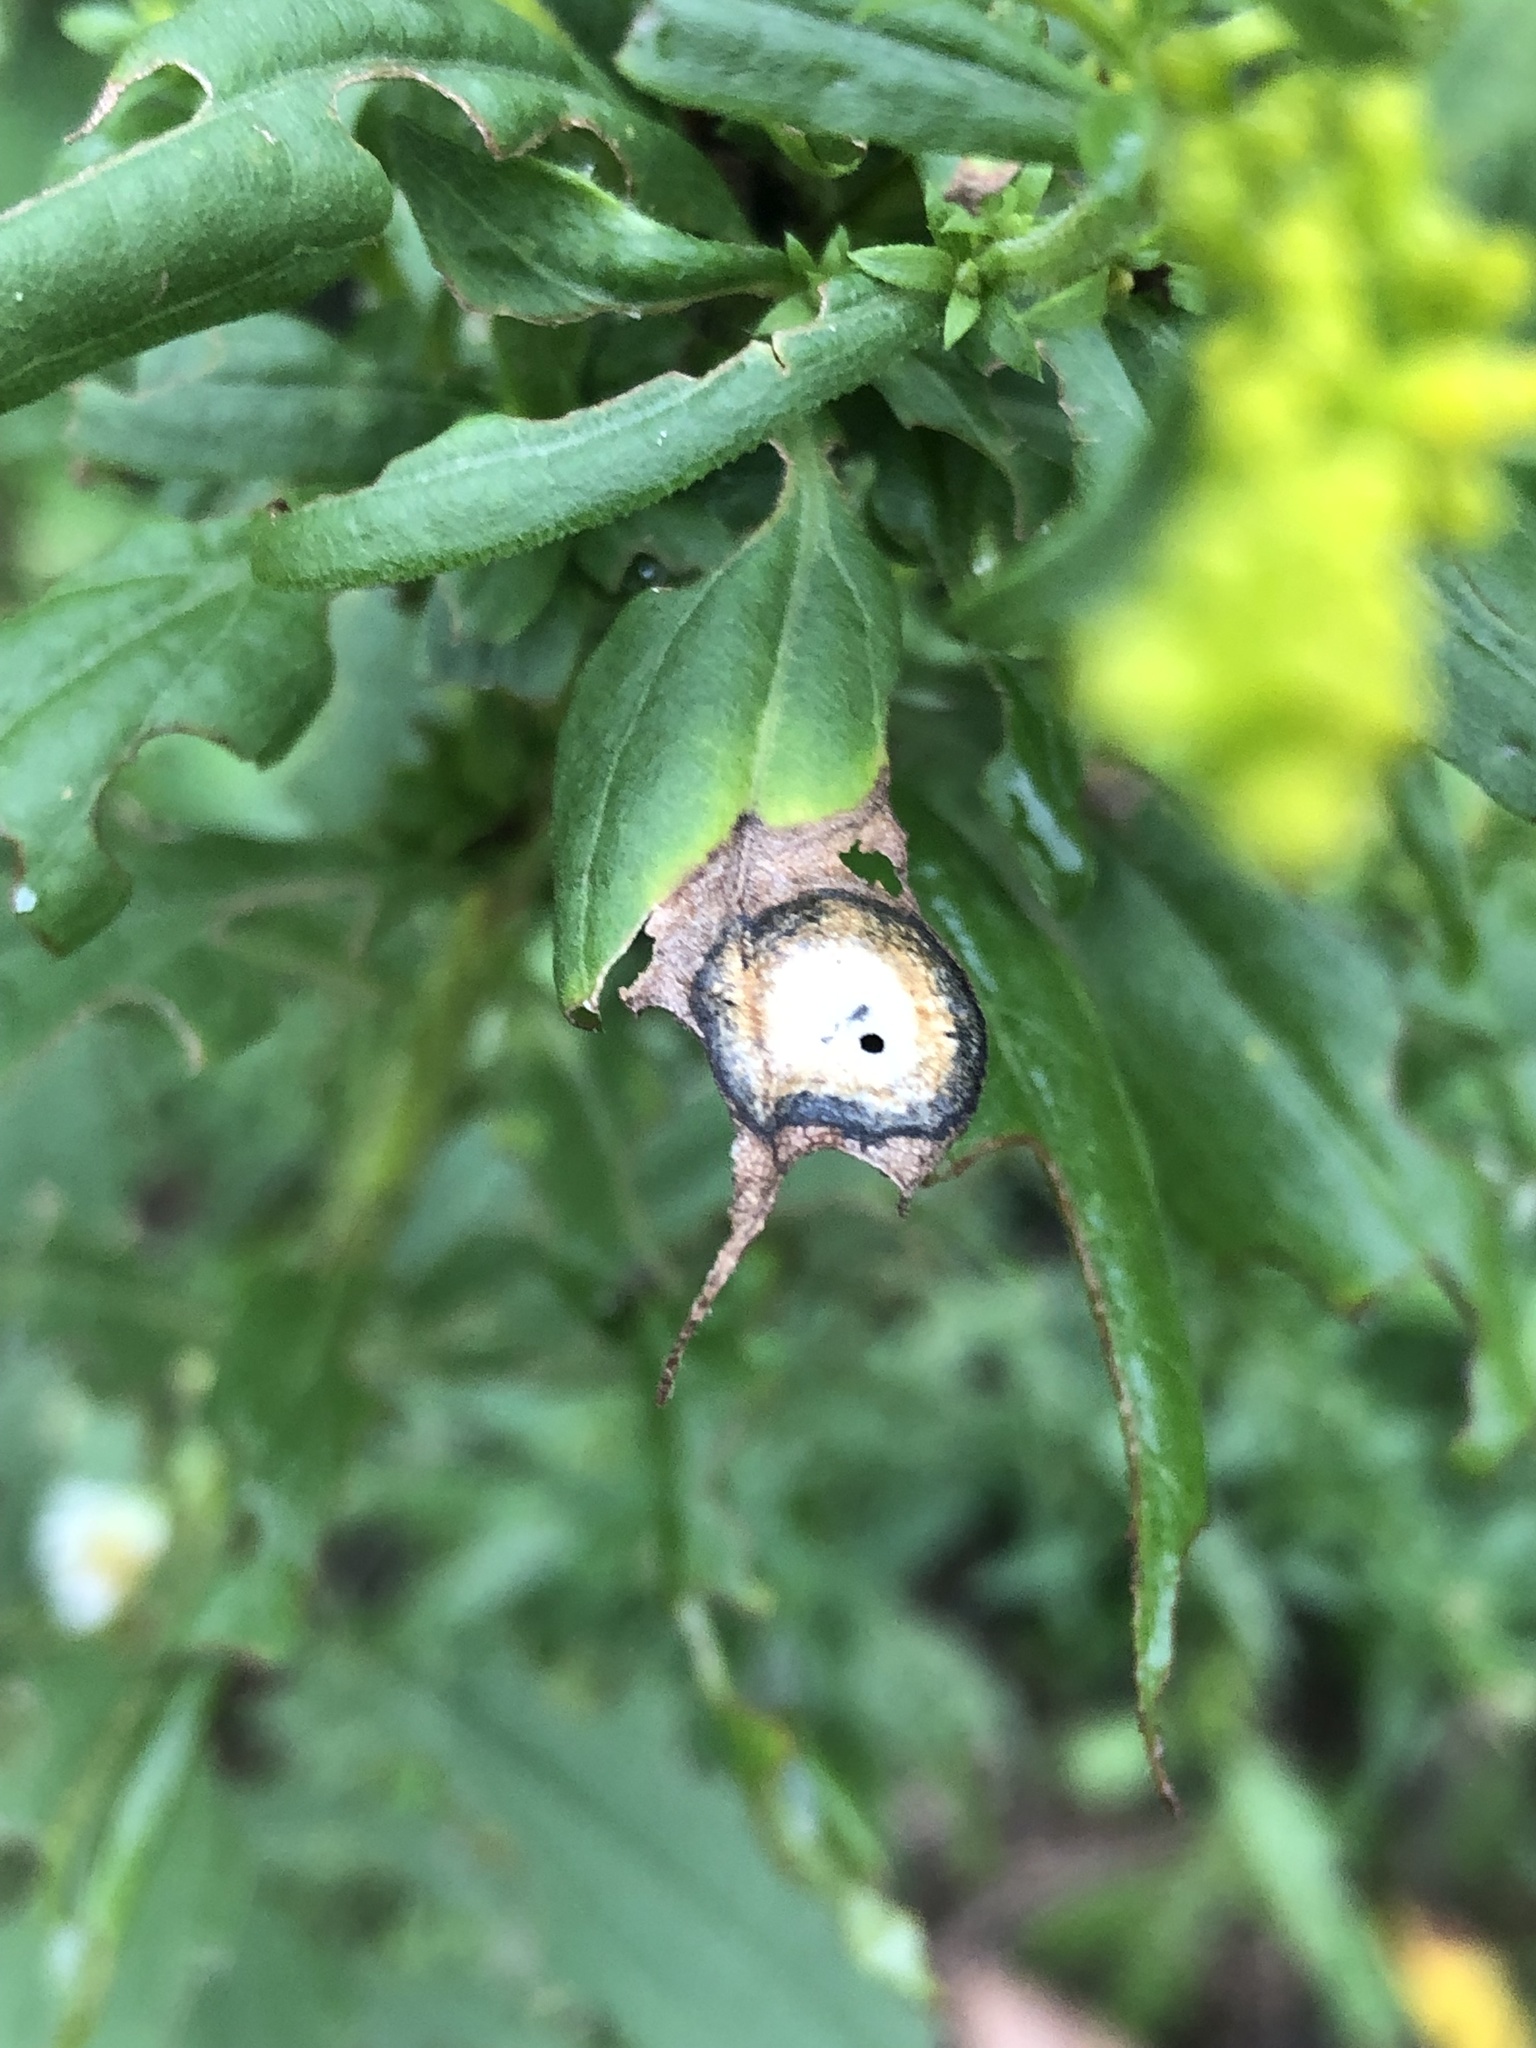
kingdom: Animalia
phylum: Arthropoda
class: Insecta
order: Diptera
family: Cecidomyiidae
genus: Asteromyia
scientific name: Asteromyia carbonifera
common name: Carbonifera goldenrod gall midge
